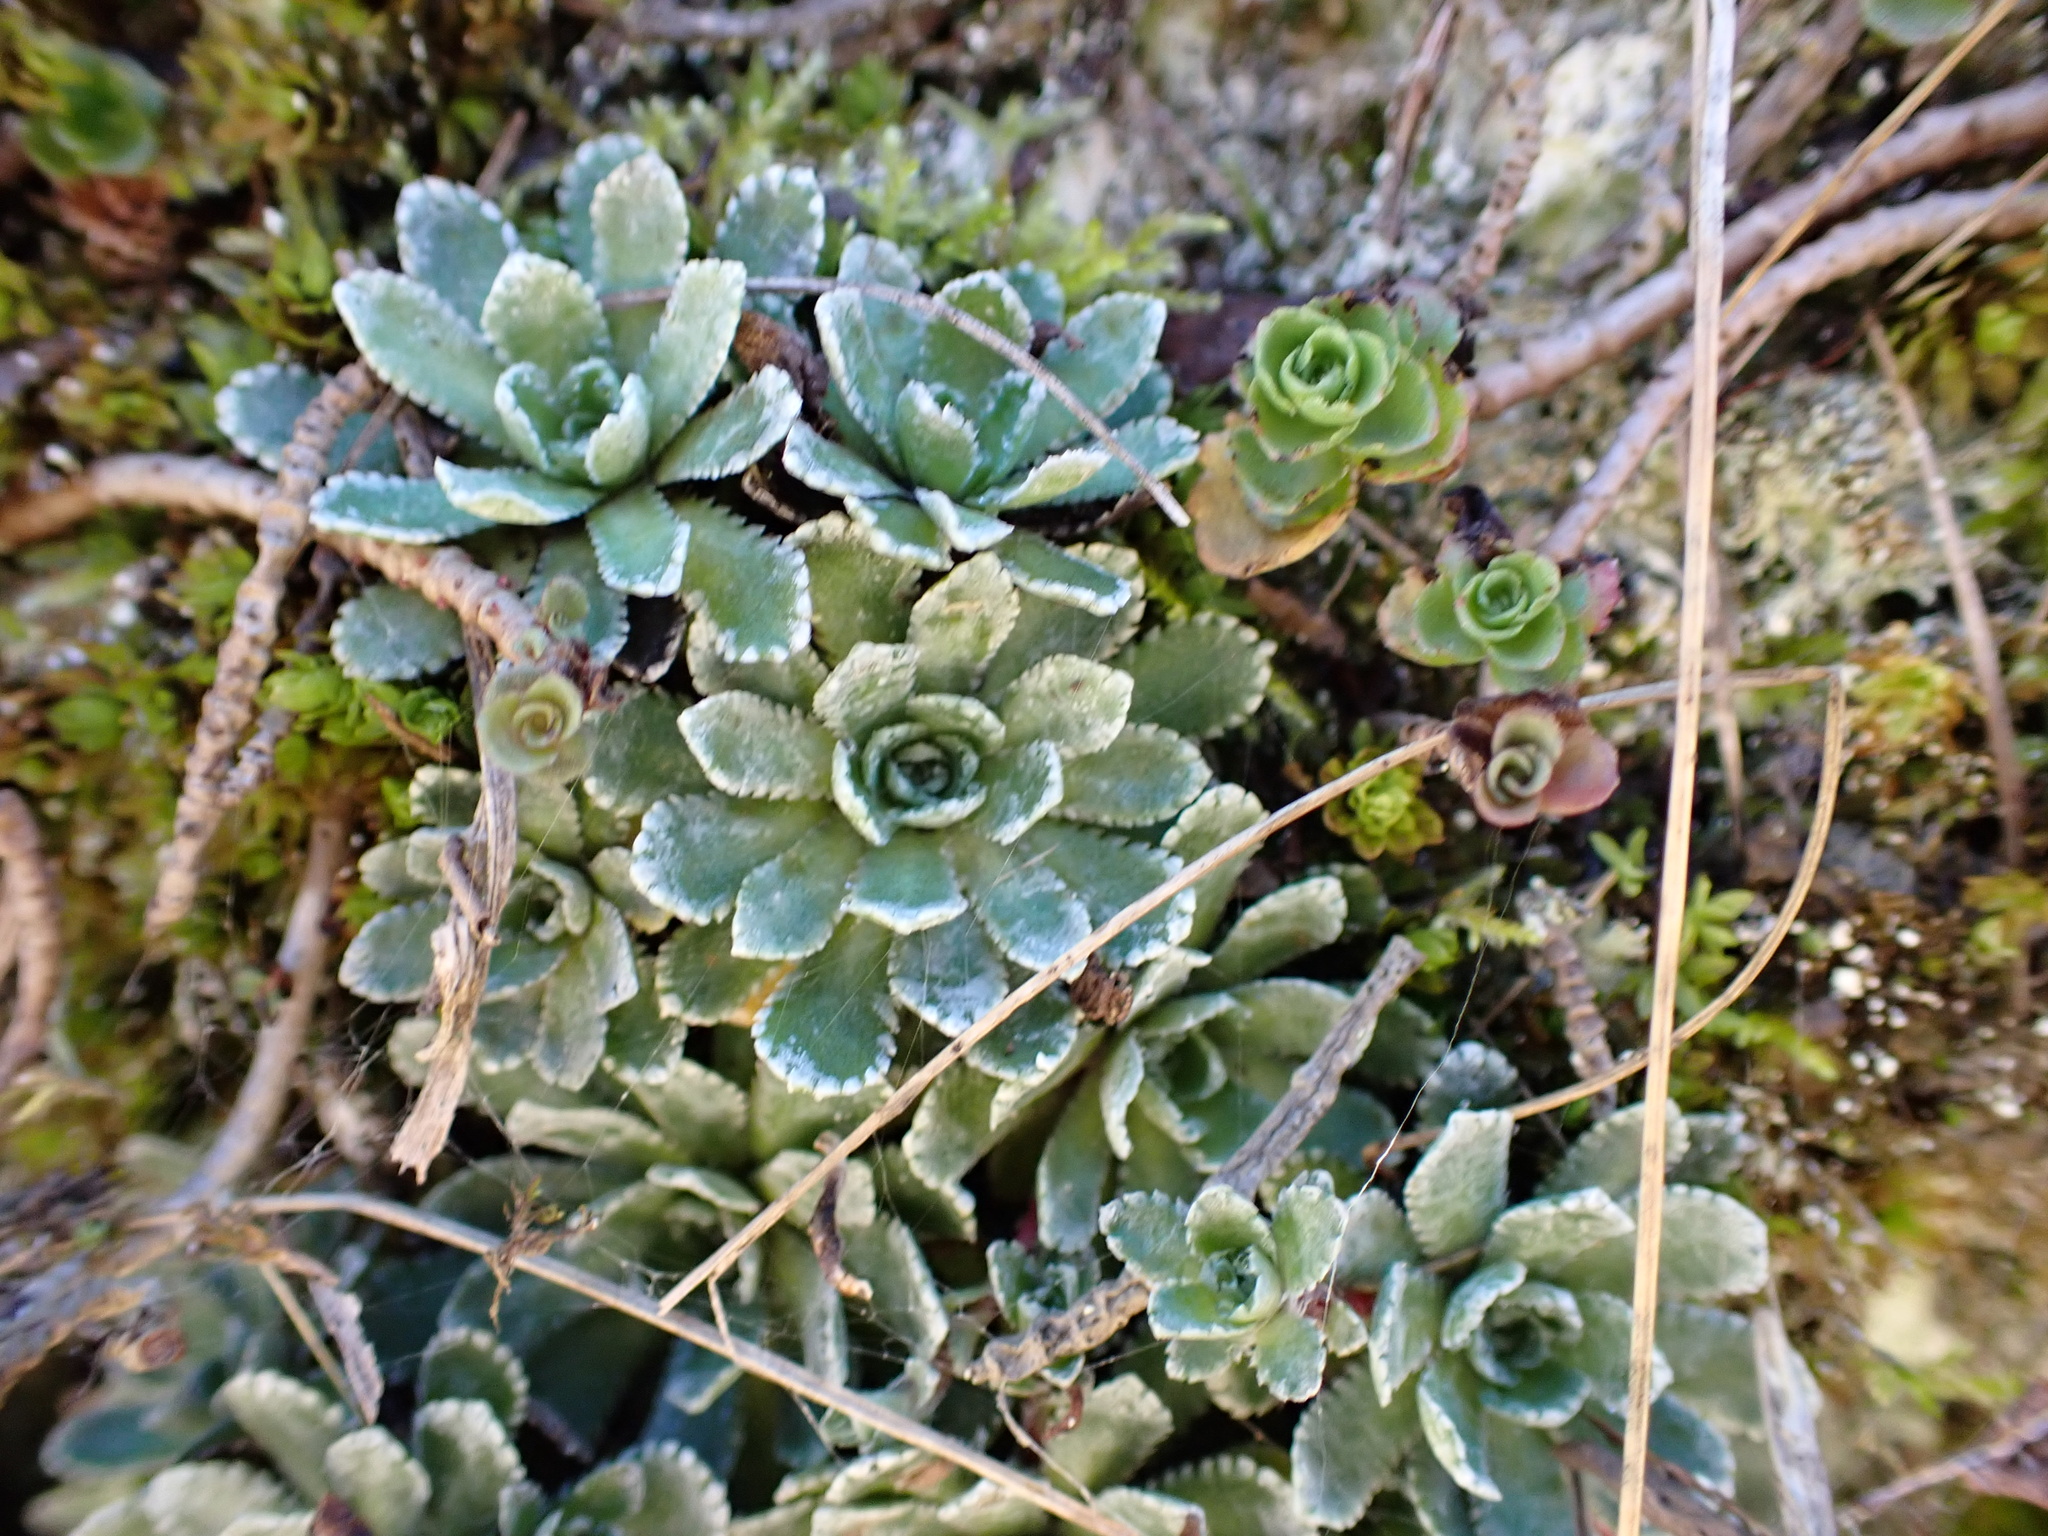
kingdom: Plantae
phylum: Tracheophyta
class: Magnoliopsida
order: Saxifragales
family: Saxifragaceae
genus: Saxifraga
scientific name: Saxifraga paniculata
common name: Livelong saxifrage
